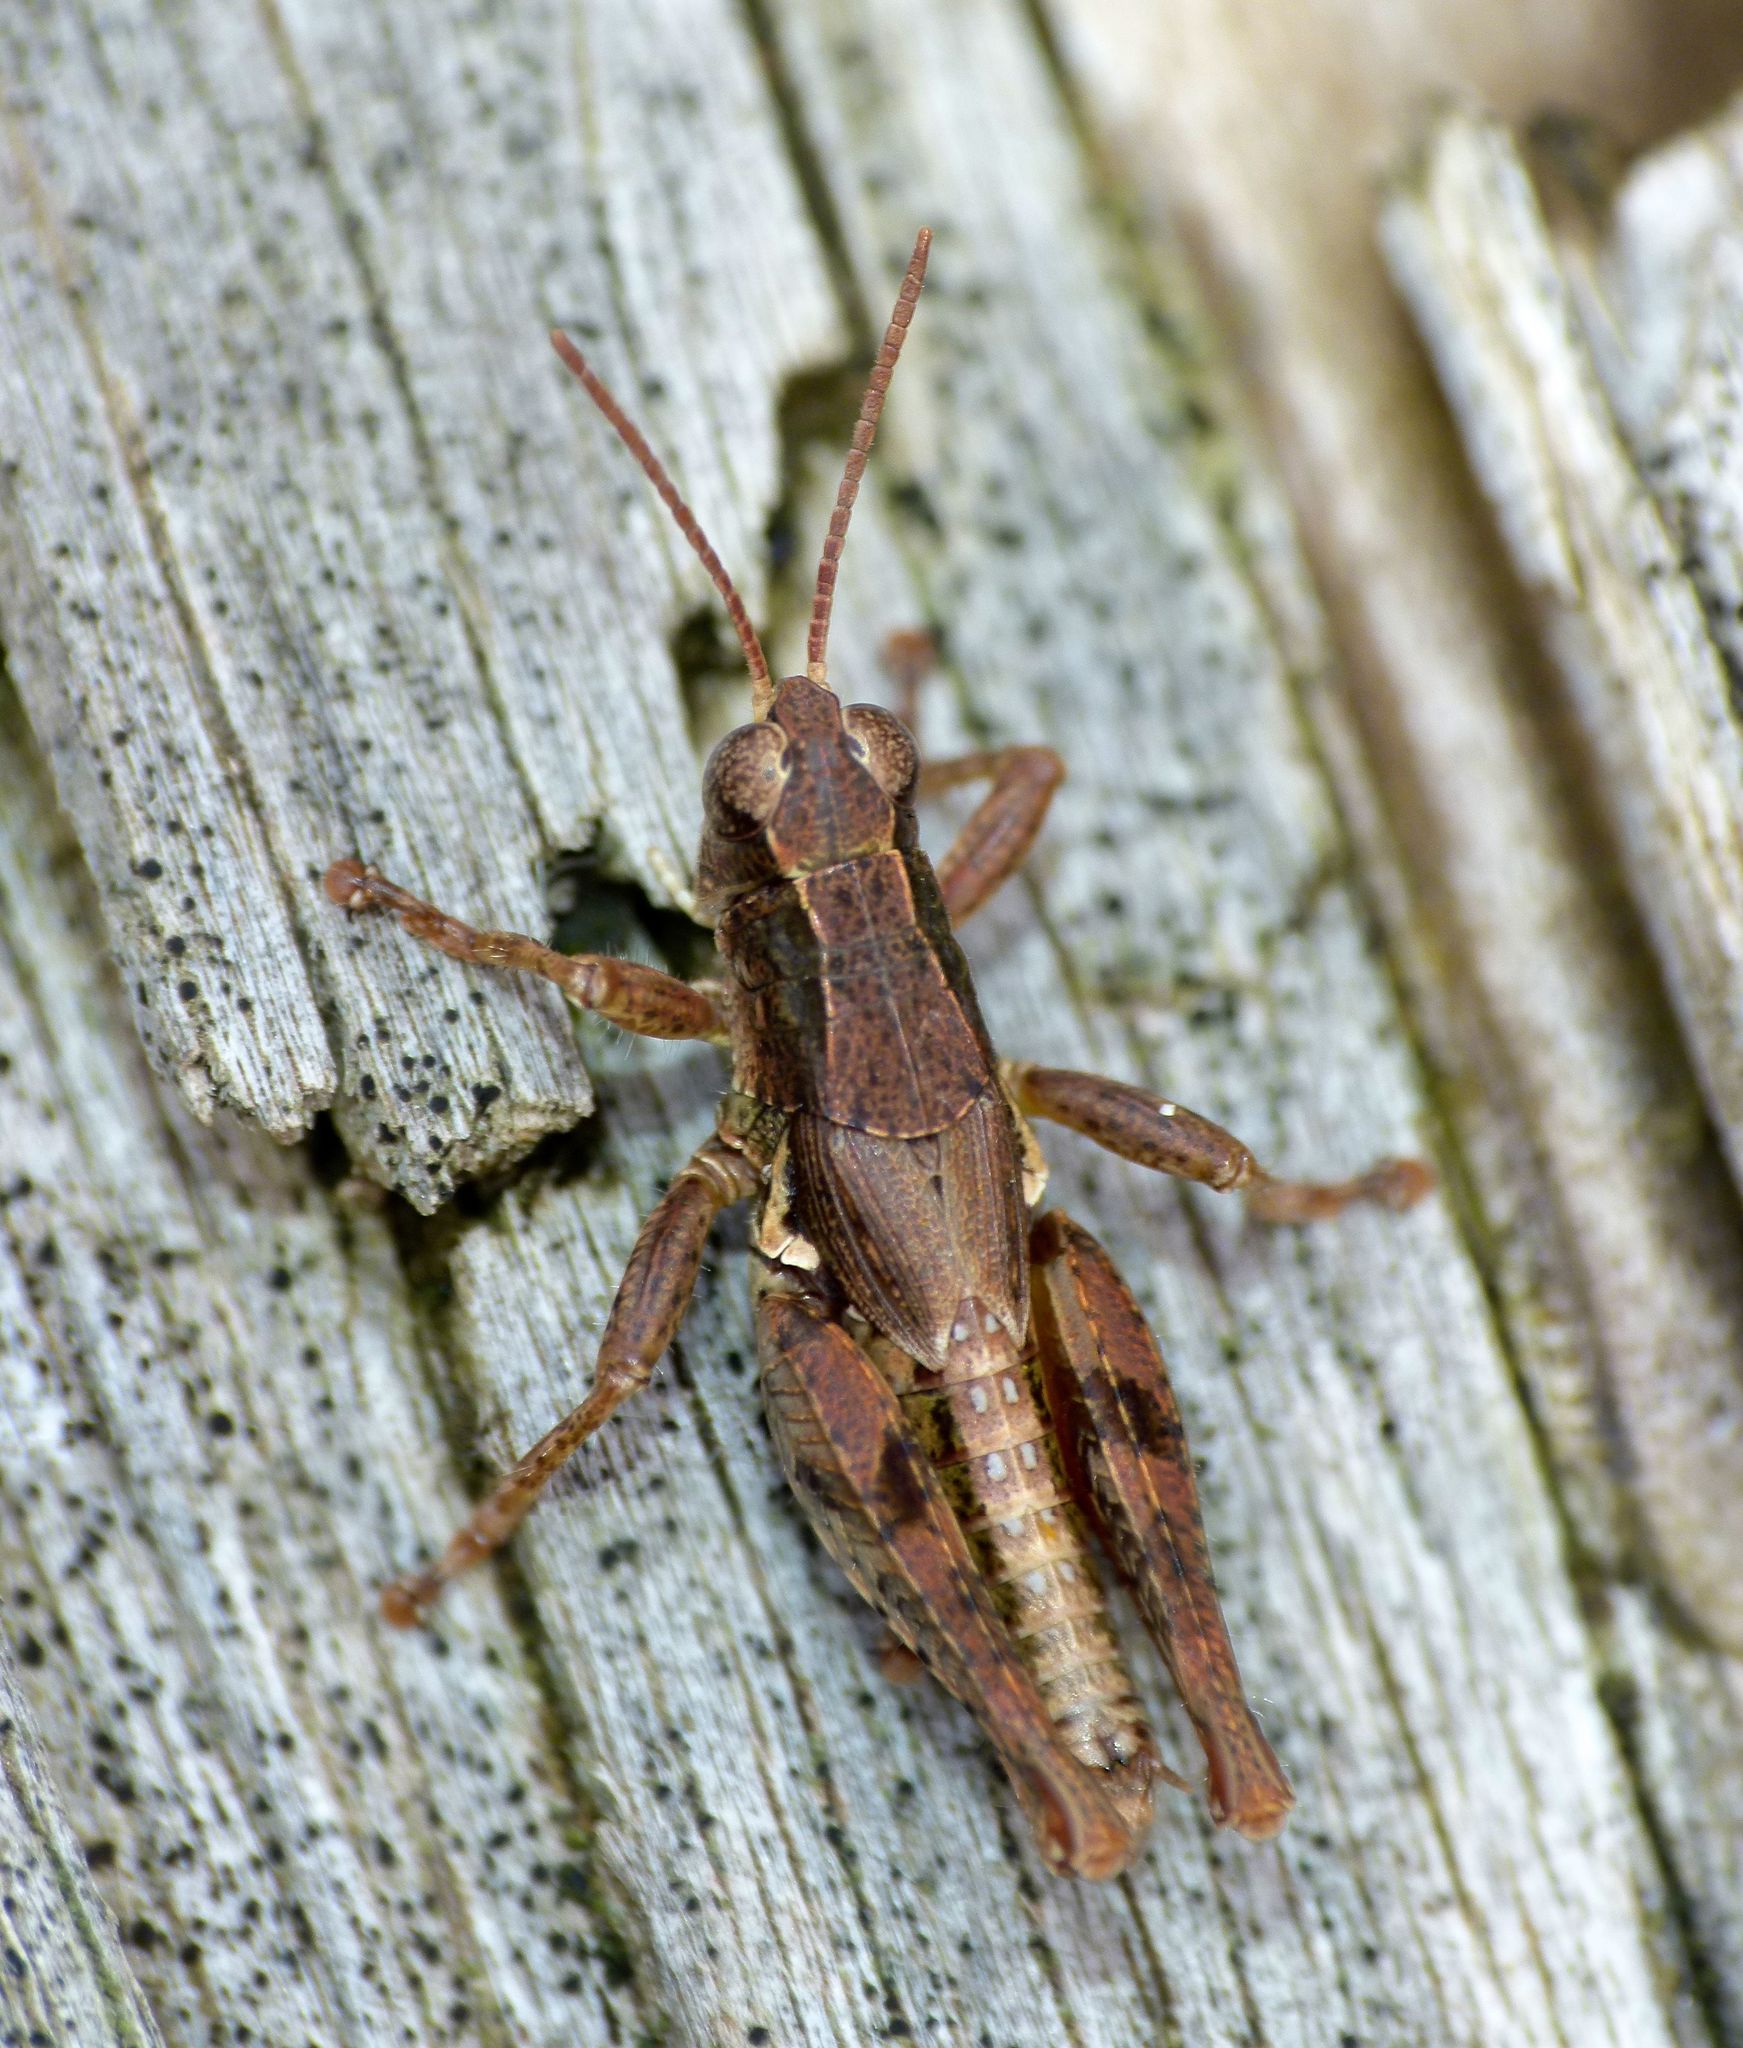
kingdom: Animalia
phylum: Arthropoda
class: Insecta
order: Orthoptera
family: Acrididae
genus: Phaulacridium
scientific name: Phaulacridium marginale
